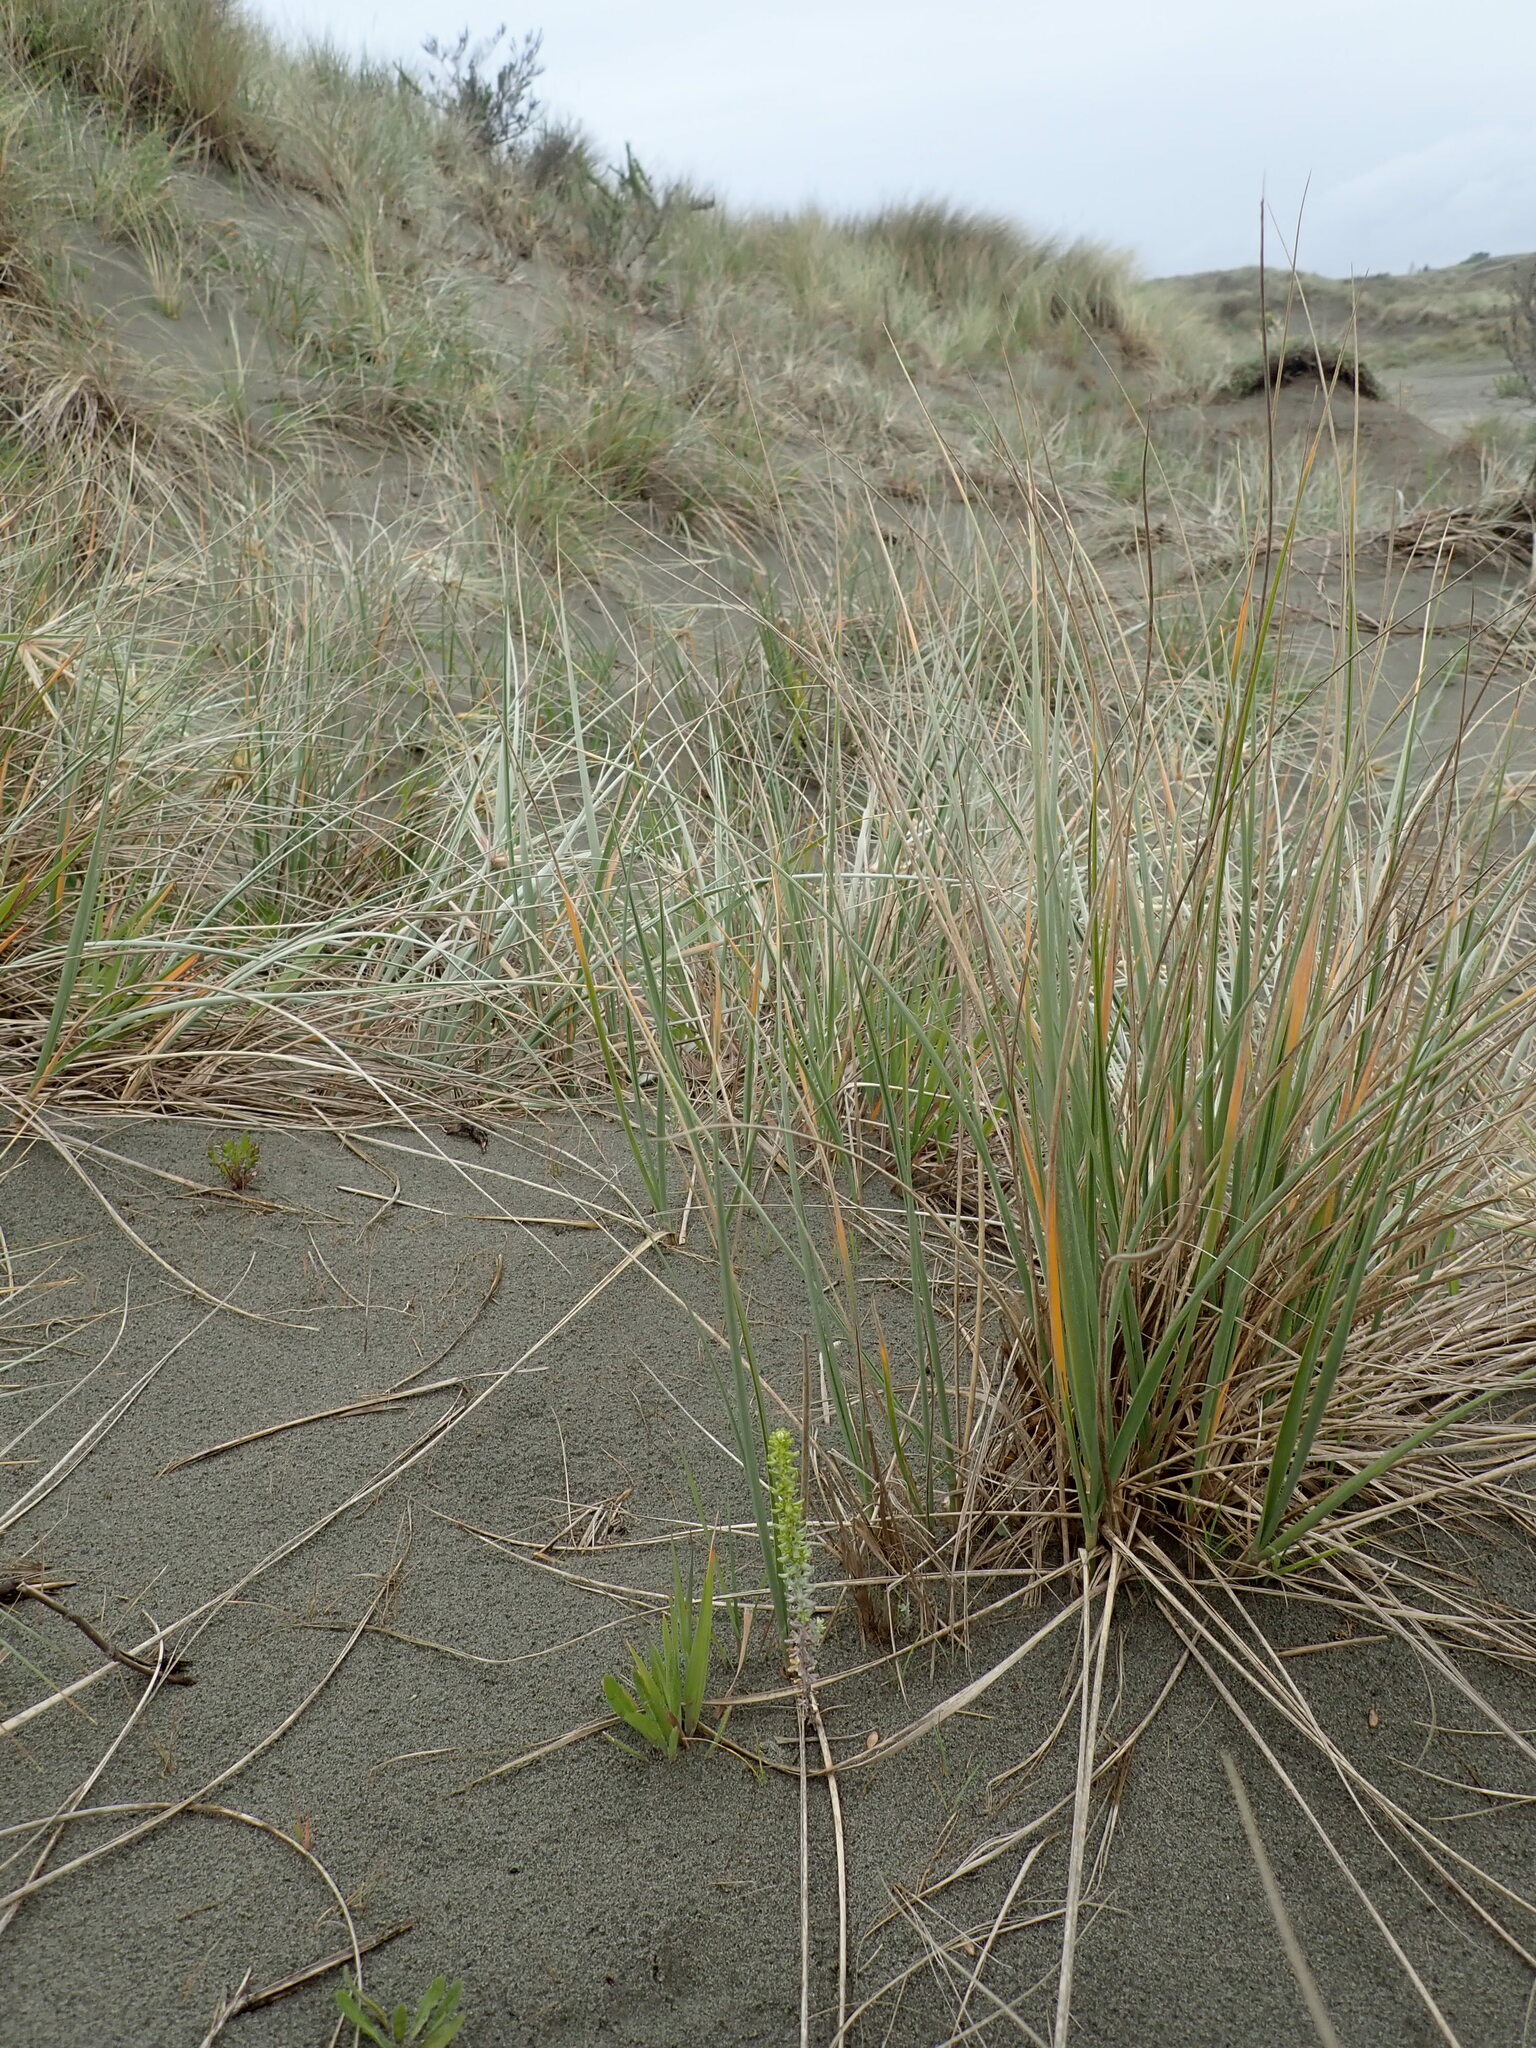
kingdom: Plantae
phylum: Tracheophyta
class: Magnoliopsida
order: Asterales
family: Asteraceae
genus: Ozothamnus
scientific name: Ozothamnus leptophyllus
